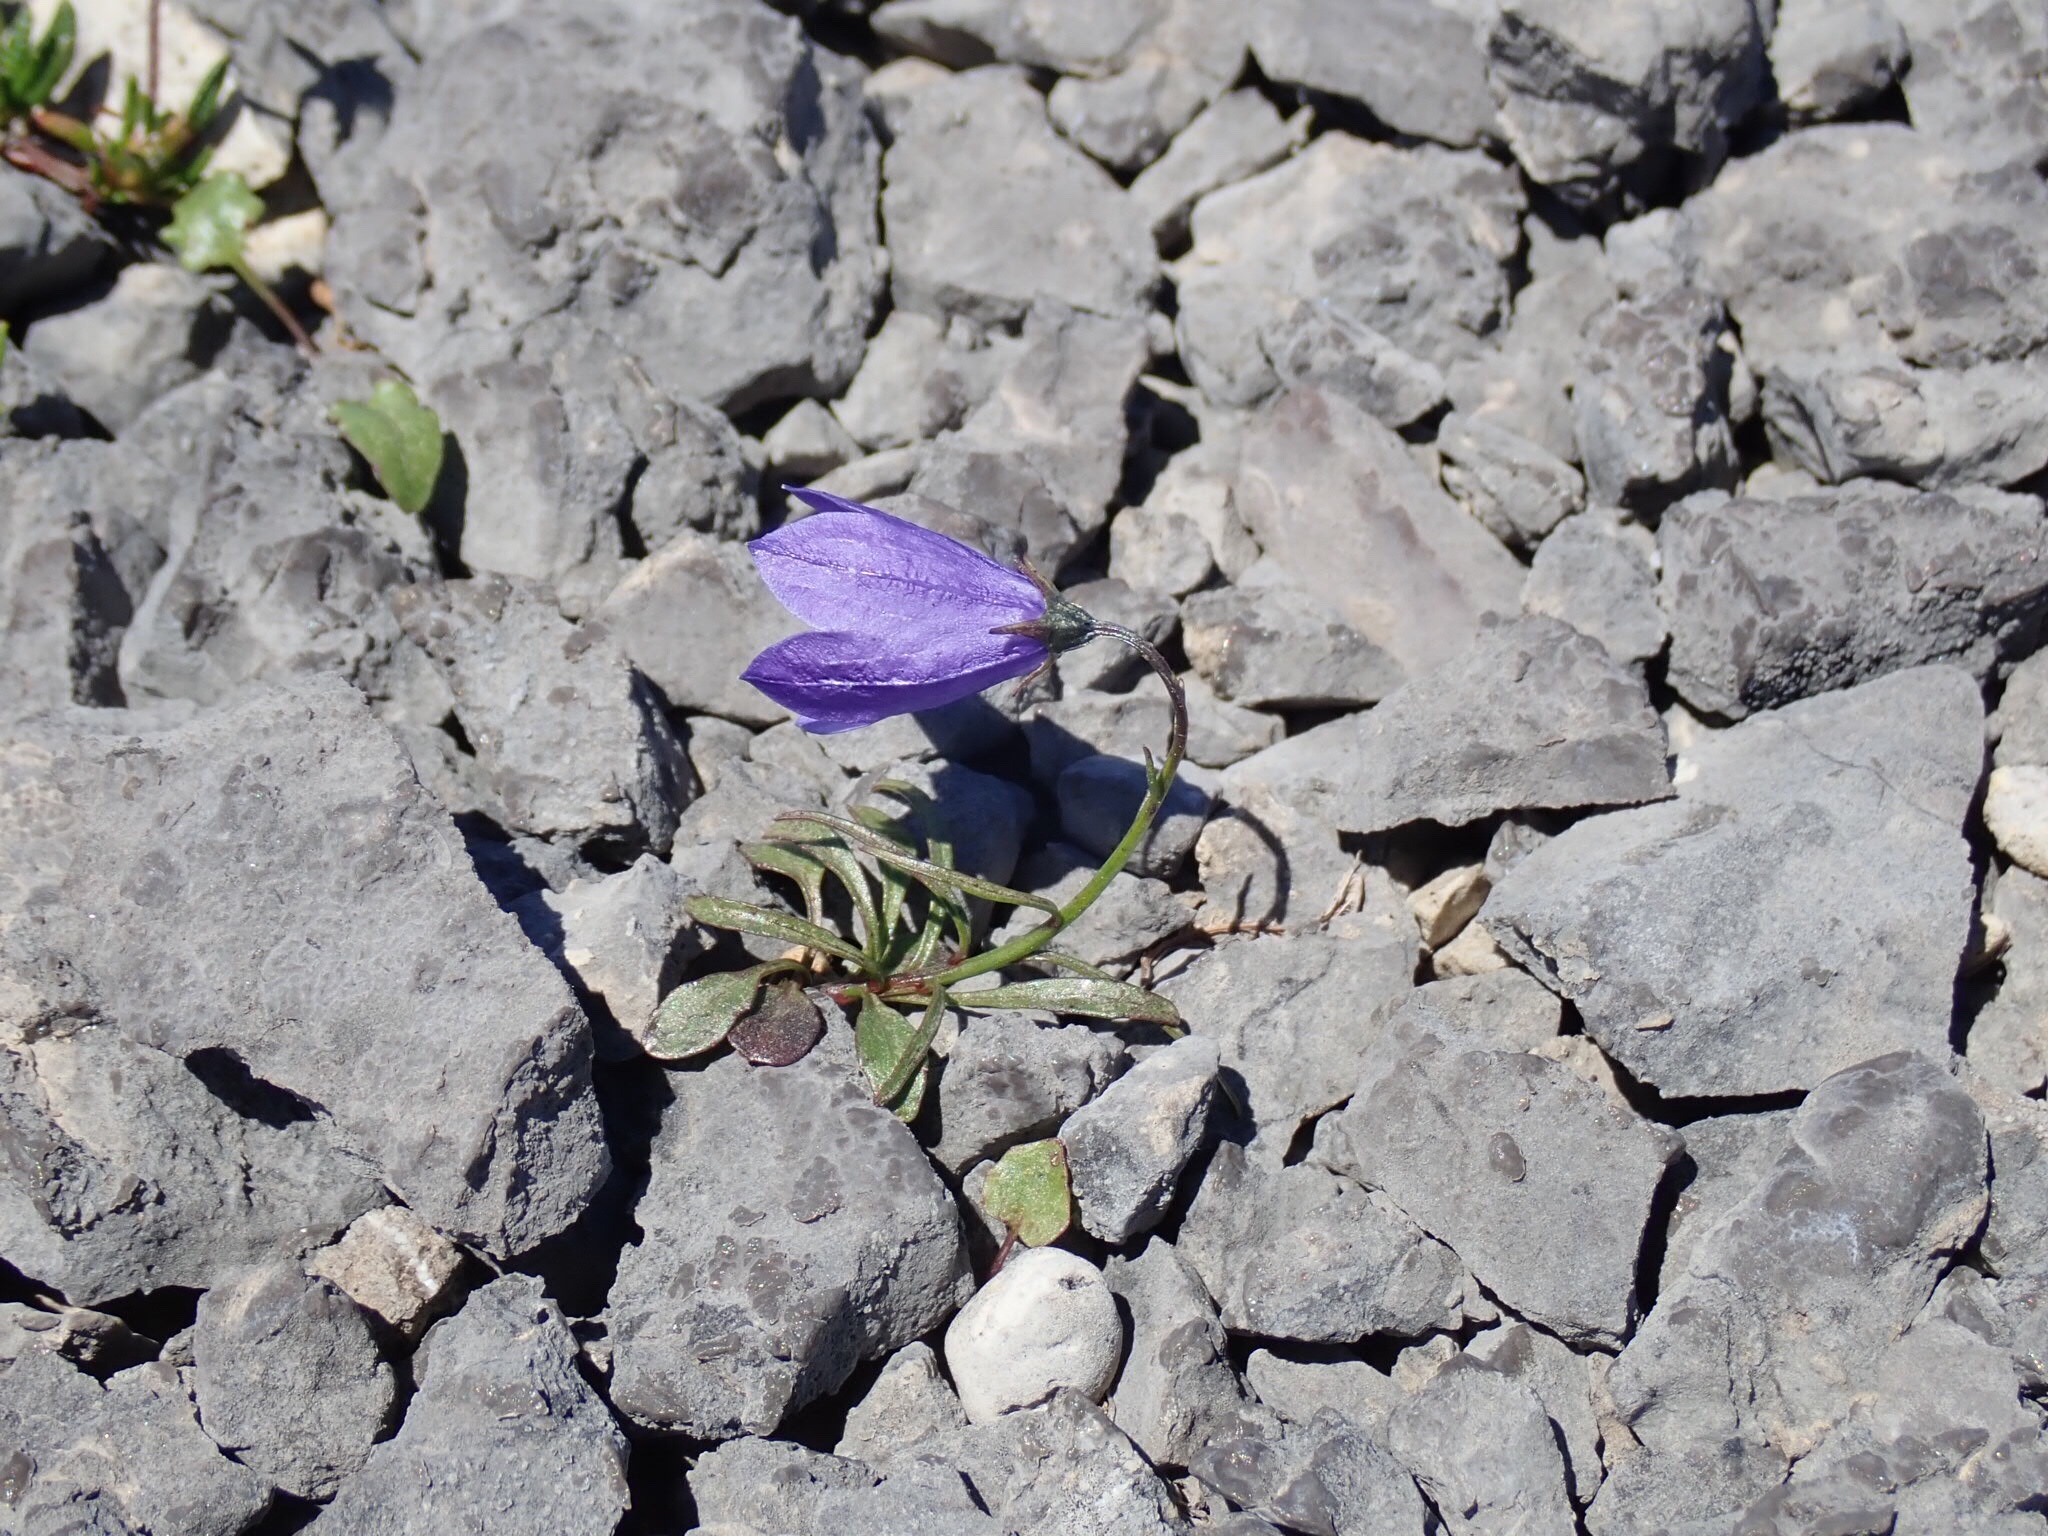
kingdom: Plantae
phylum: Tracheophyta
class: Magnoliopsida
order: Asterales
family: Campanulaceae
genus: Campanula
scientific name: Campanula giesekiana
